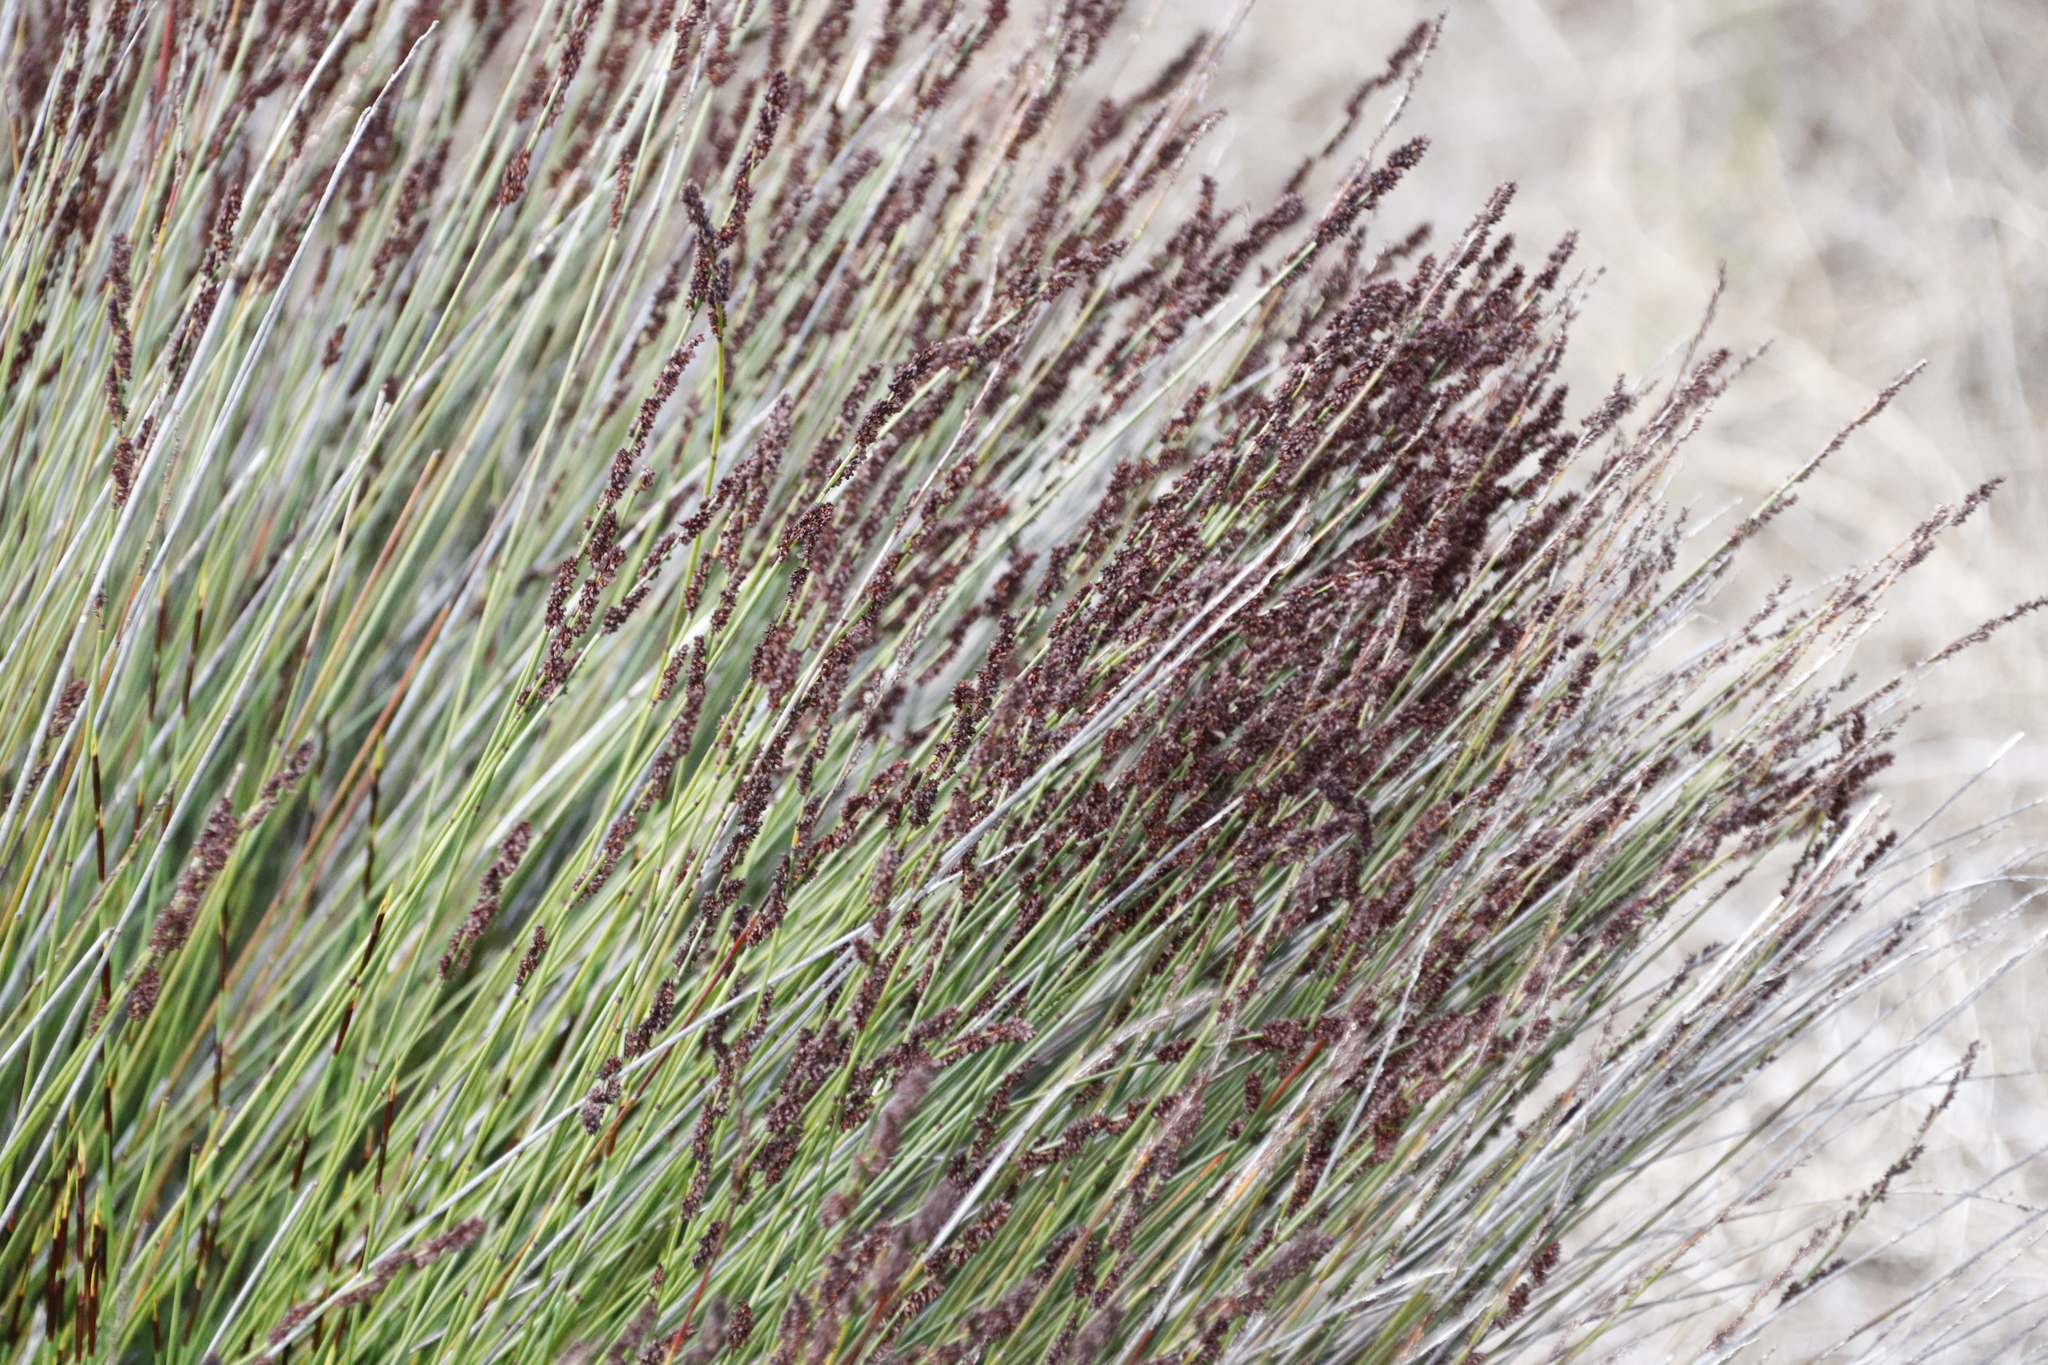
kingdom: Plantae
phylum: Tracheophyta
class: Liliopsida
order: Poales
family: Restionaceae
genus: Elegia
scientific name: Elegia tectorum
